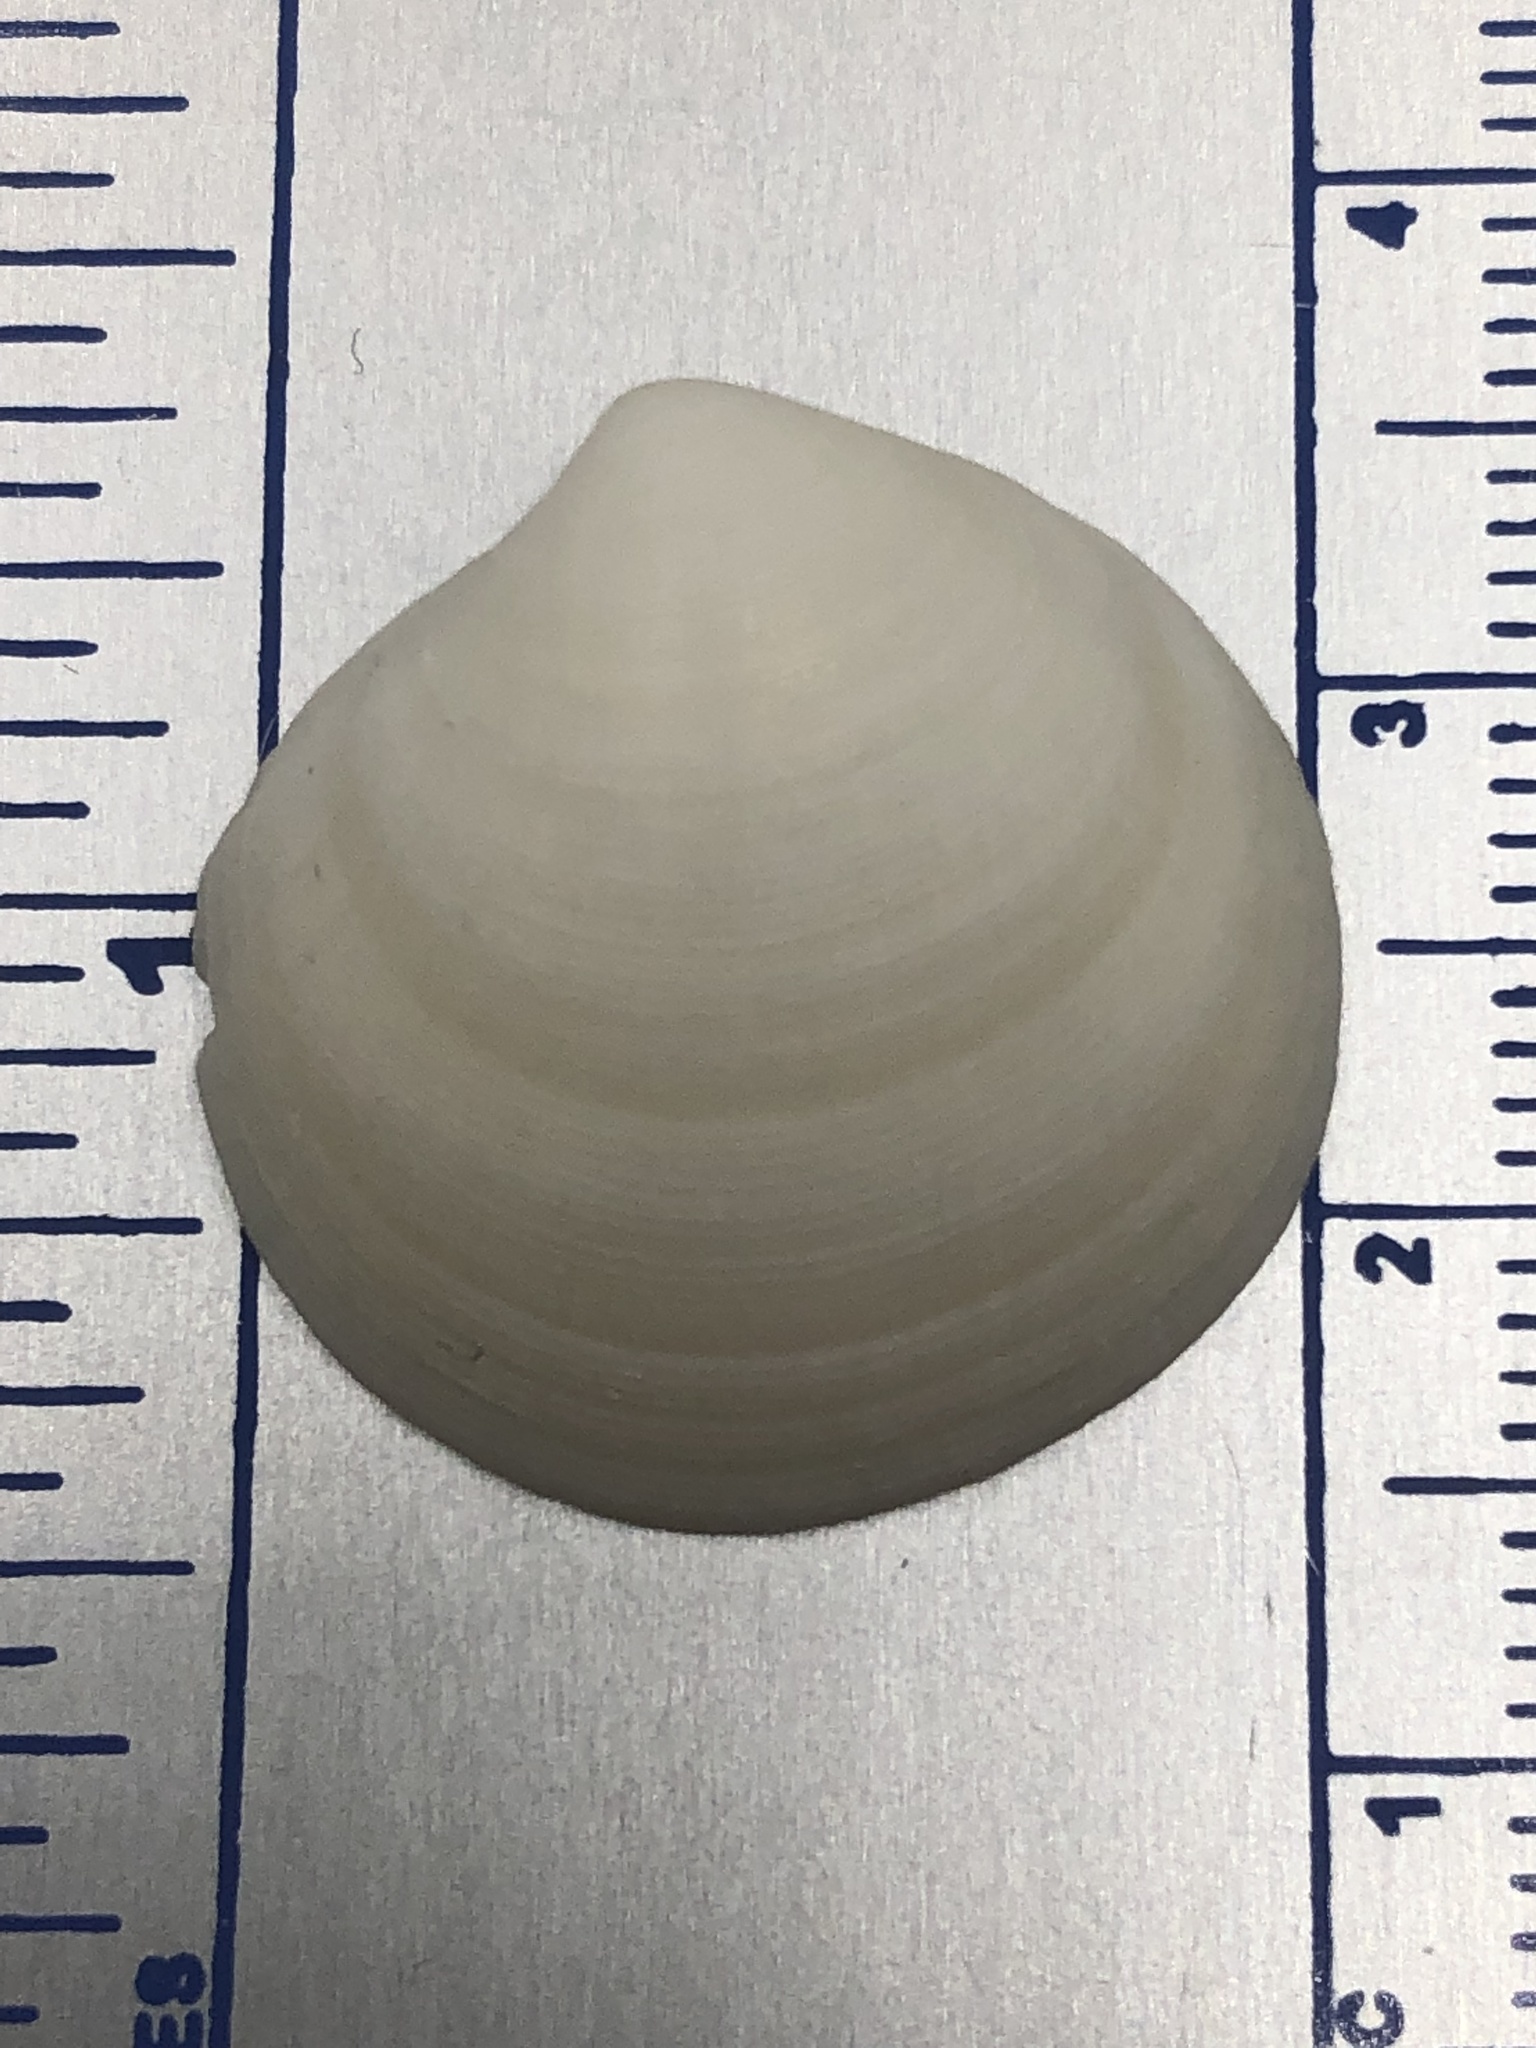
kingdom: Animalia
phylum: Mollusca
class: Bivalvia
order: Lucinida
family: Lucinidae
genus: Callucina
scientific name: Callucina keenae
